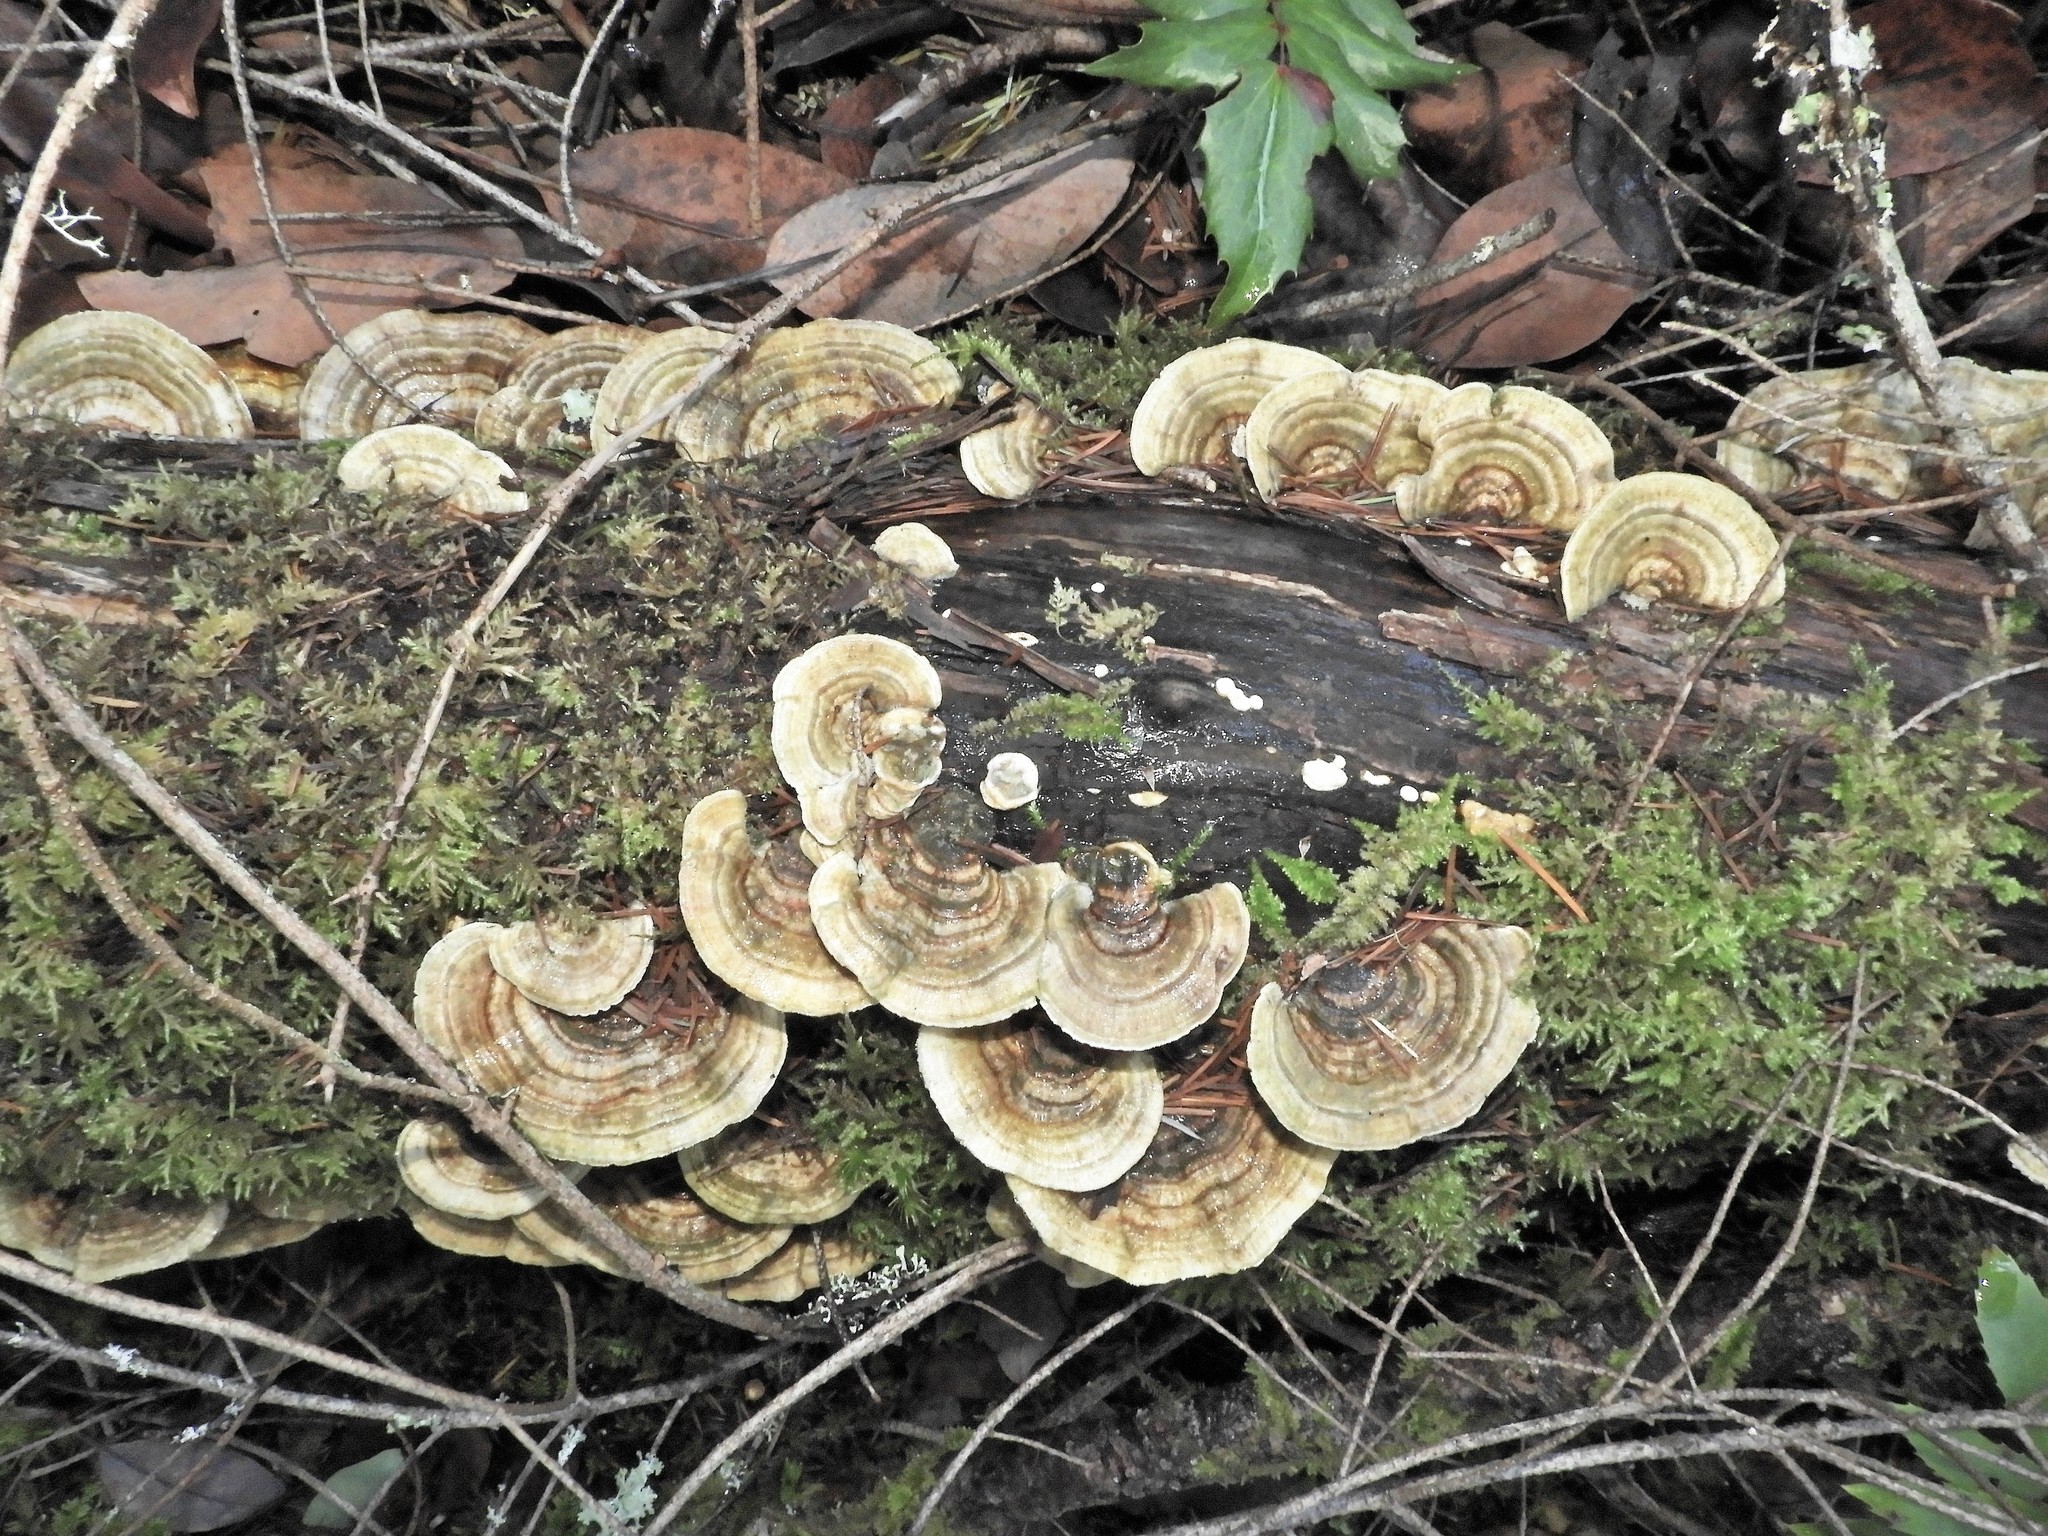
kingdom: Fungi
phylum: Basidiomycota
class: Agaricomycetes
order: Polyporales
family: Polyporaceae
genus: Trametes
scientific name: Trametes versicolor
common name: Turkeytail
